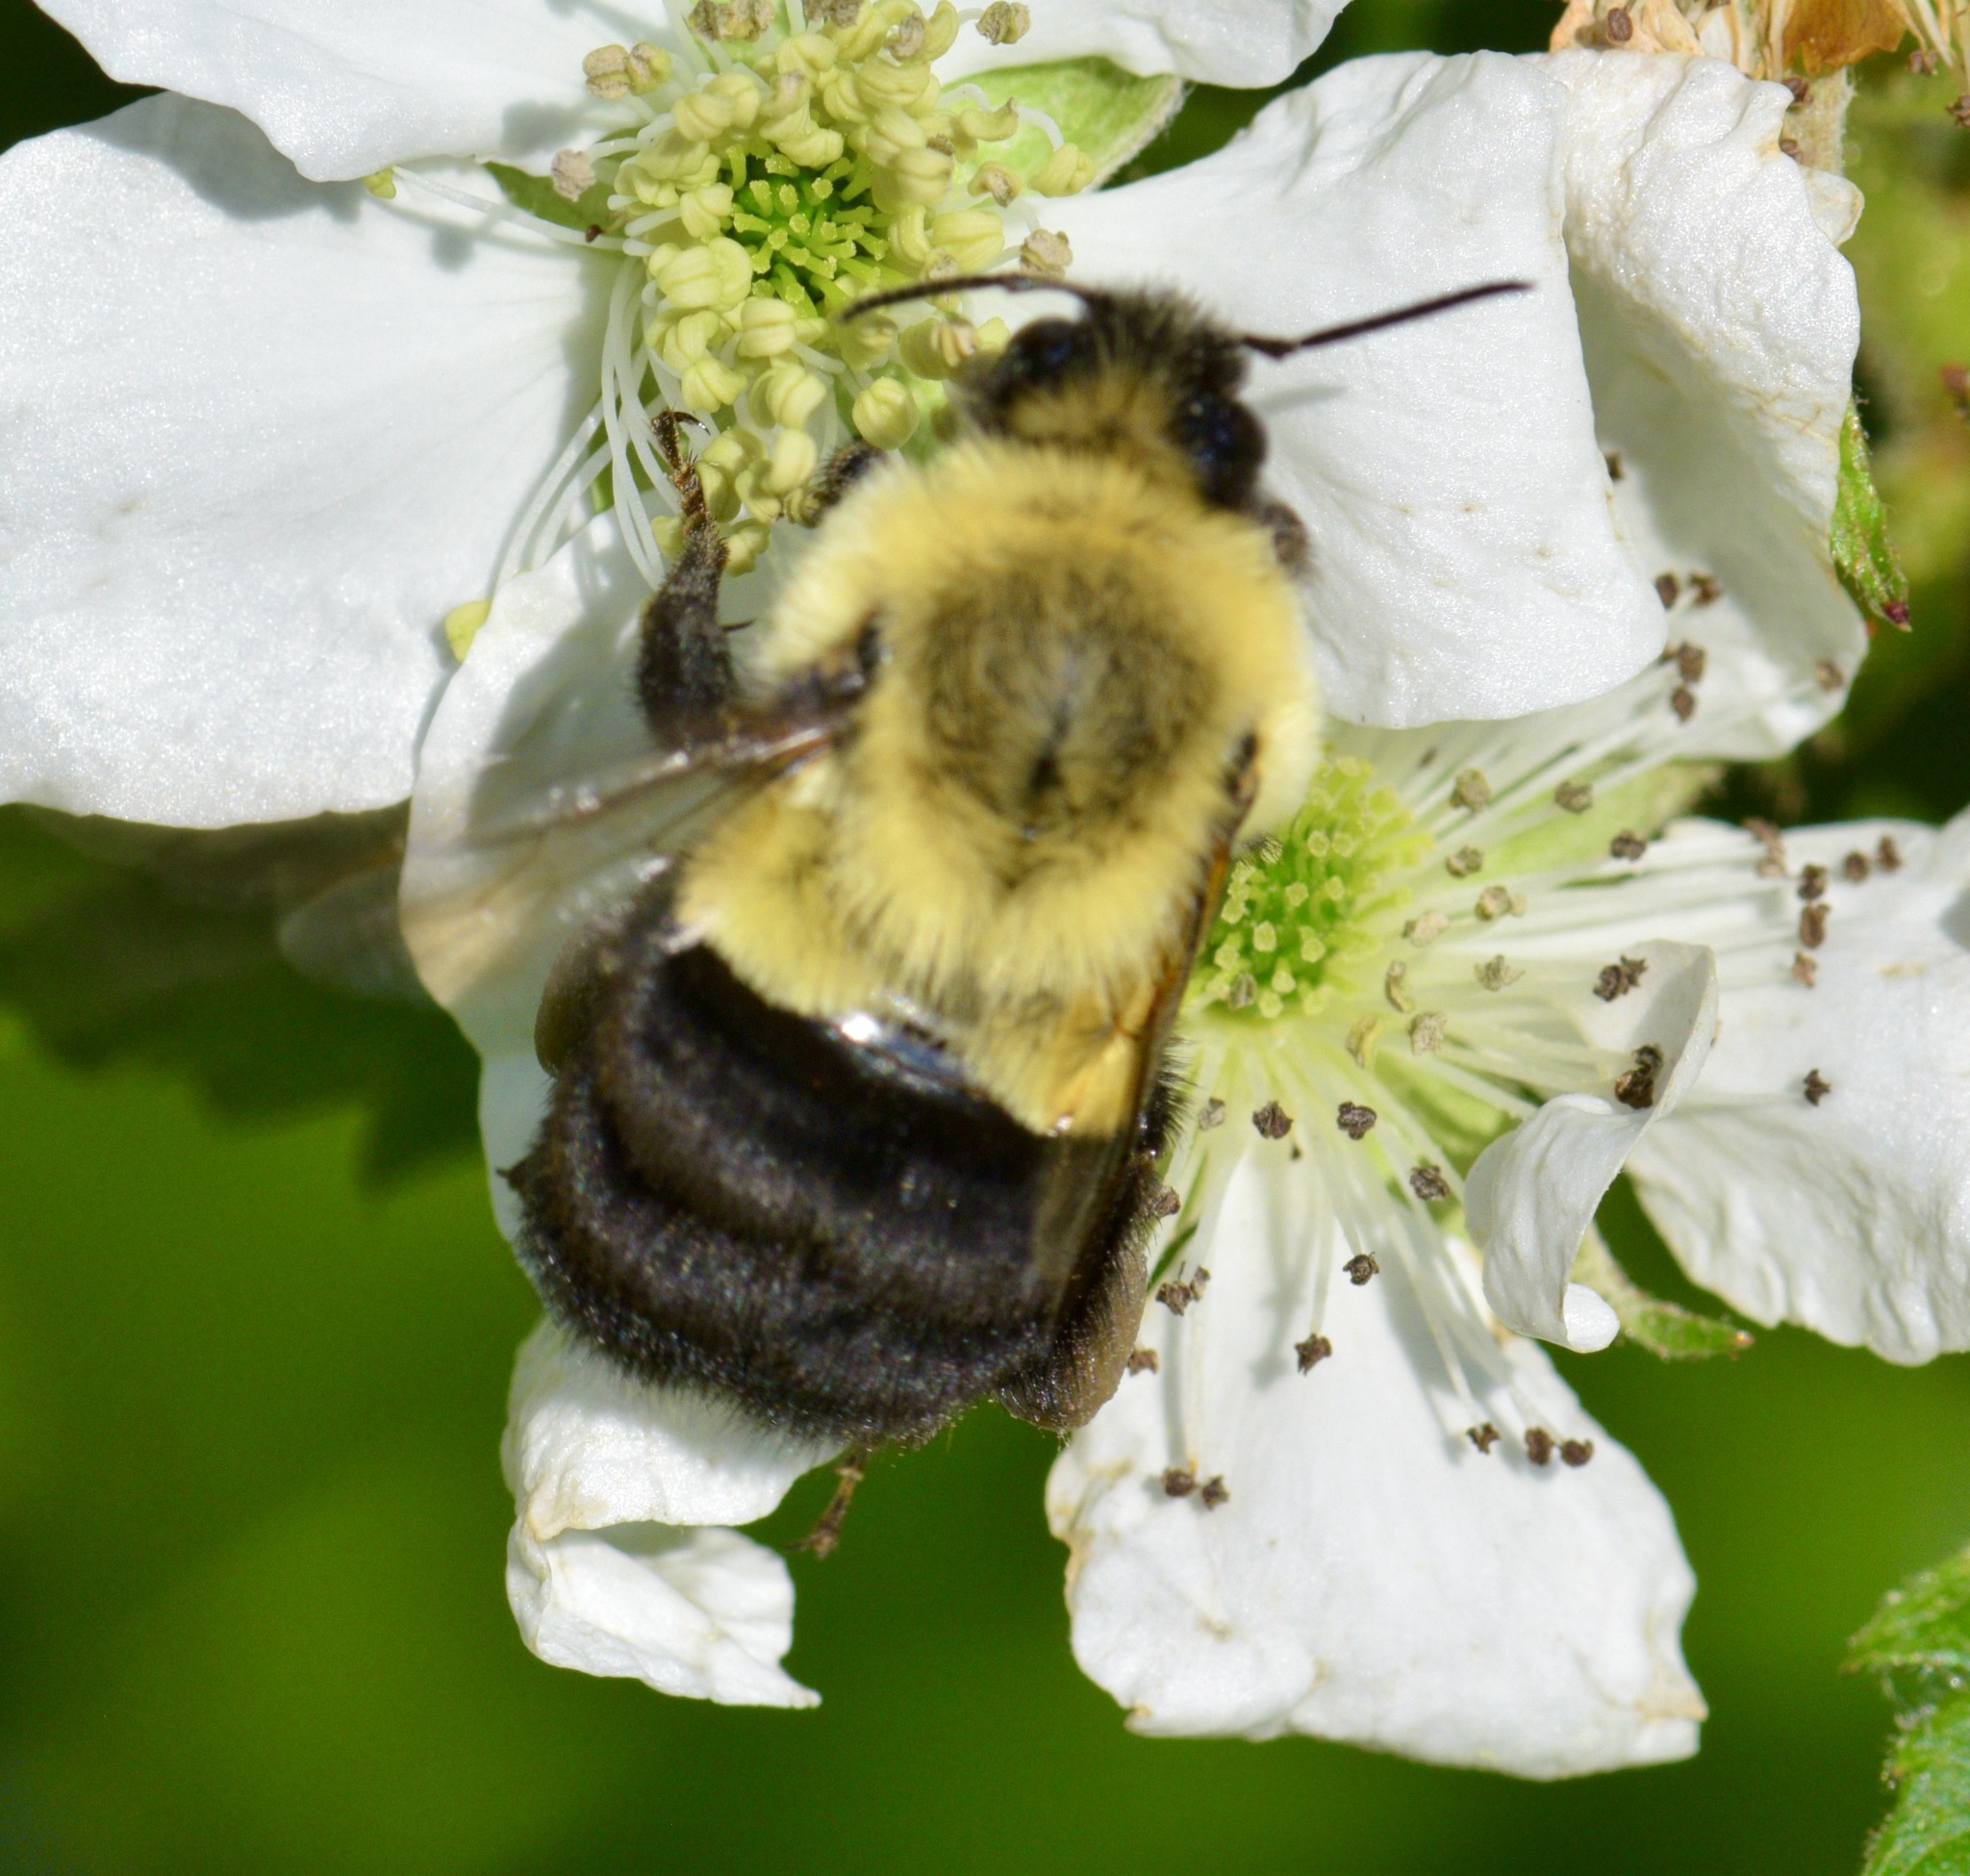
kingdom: Animalia
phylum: Arthropoda
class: Insecta
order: Hymenoptera
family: Apidae
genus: Bombus
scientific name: Bombus impatiens
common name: Common eastern bumble bee
